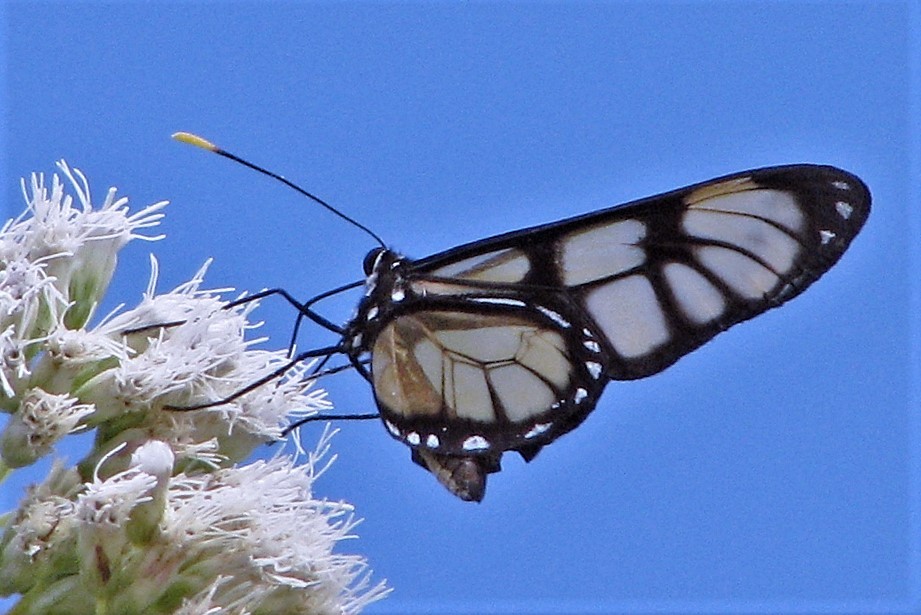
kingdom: Animalia
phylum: Arthropoda
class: Insecta
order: Lepidoptera
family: Nymphalidae
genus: Dircenna
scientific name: Dircenna dero
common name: Dero clearwing
